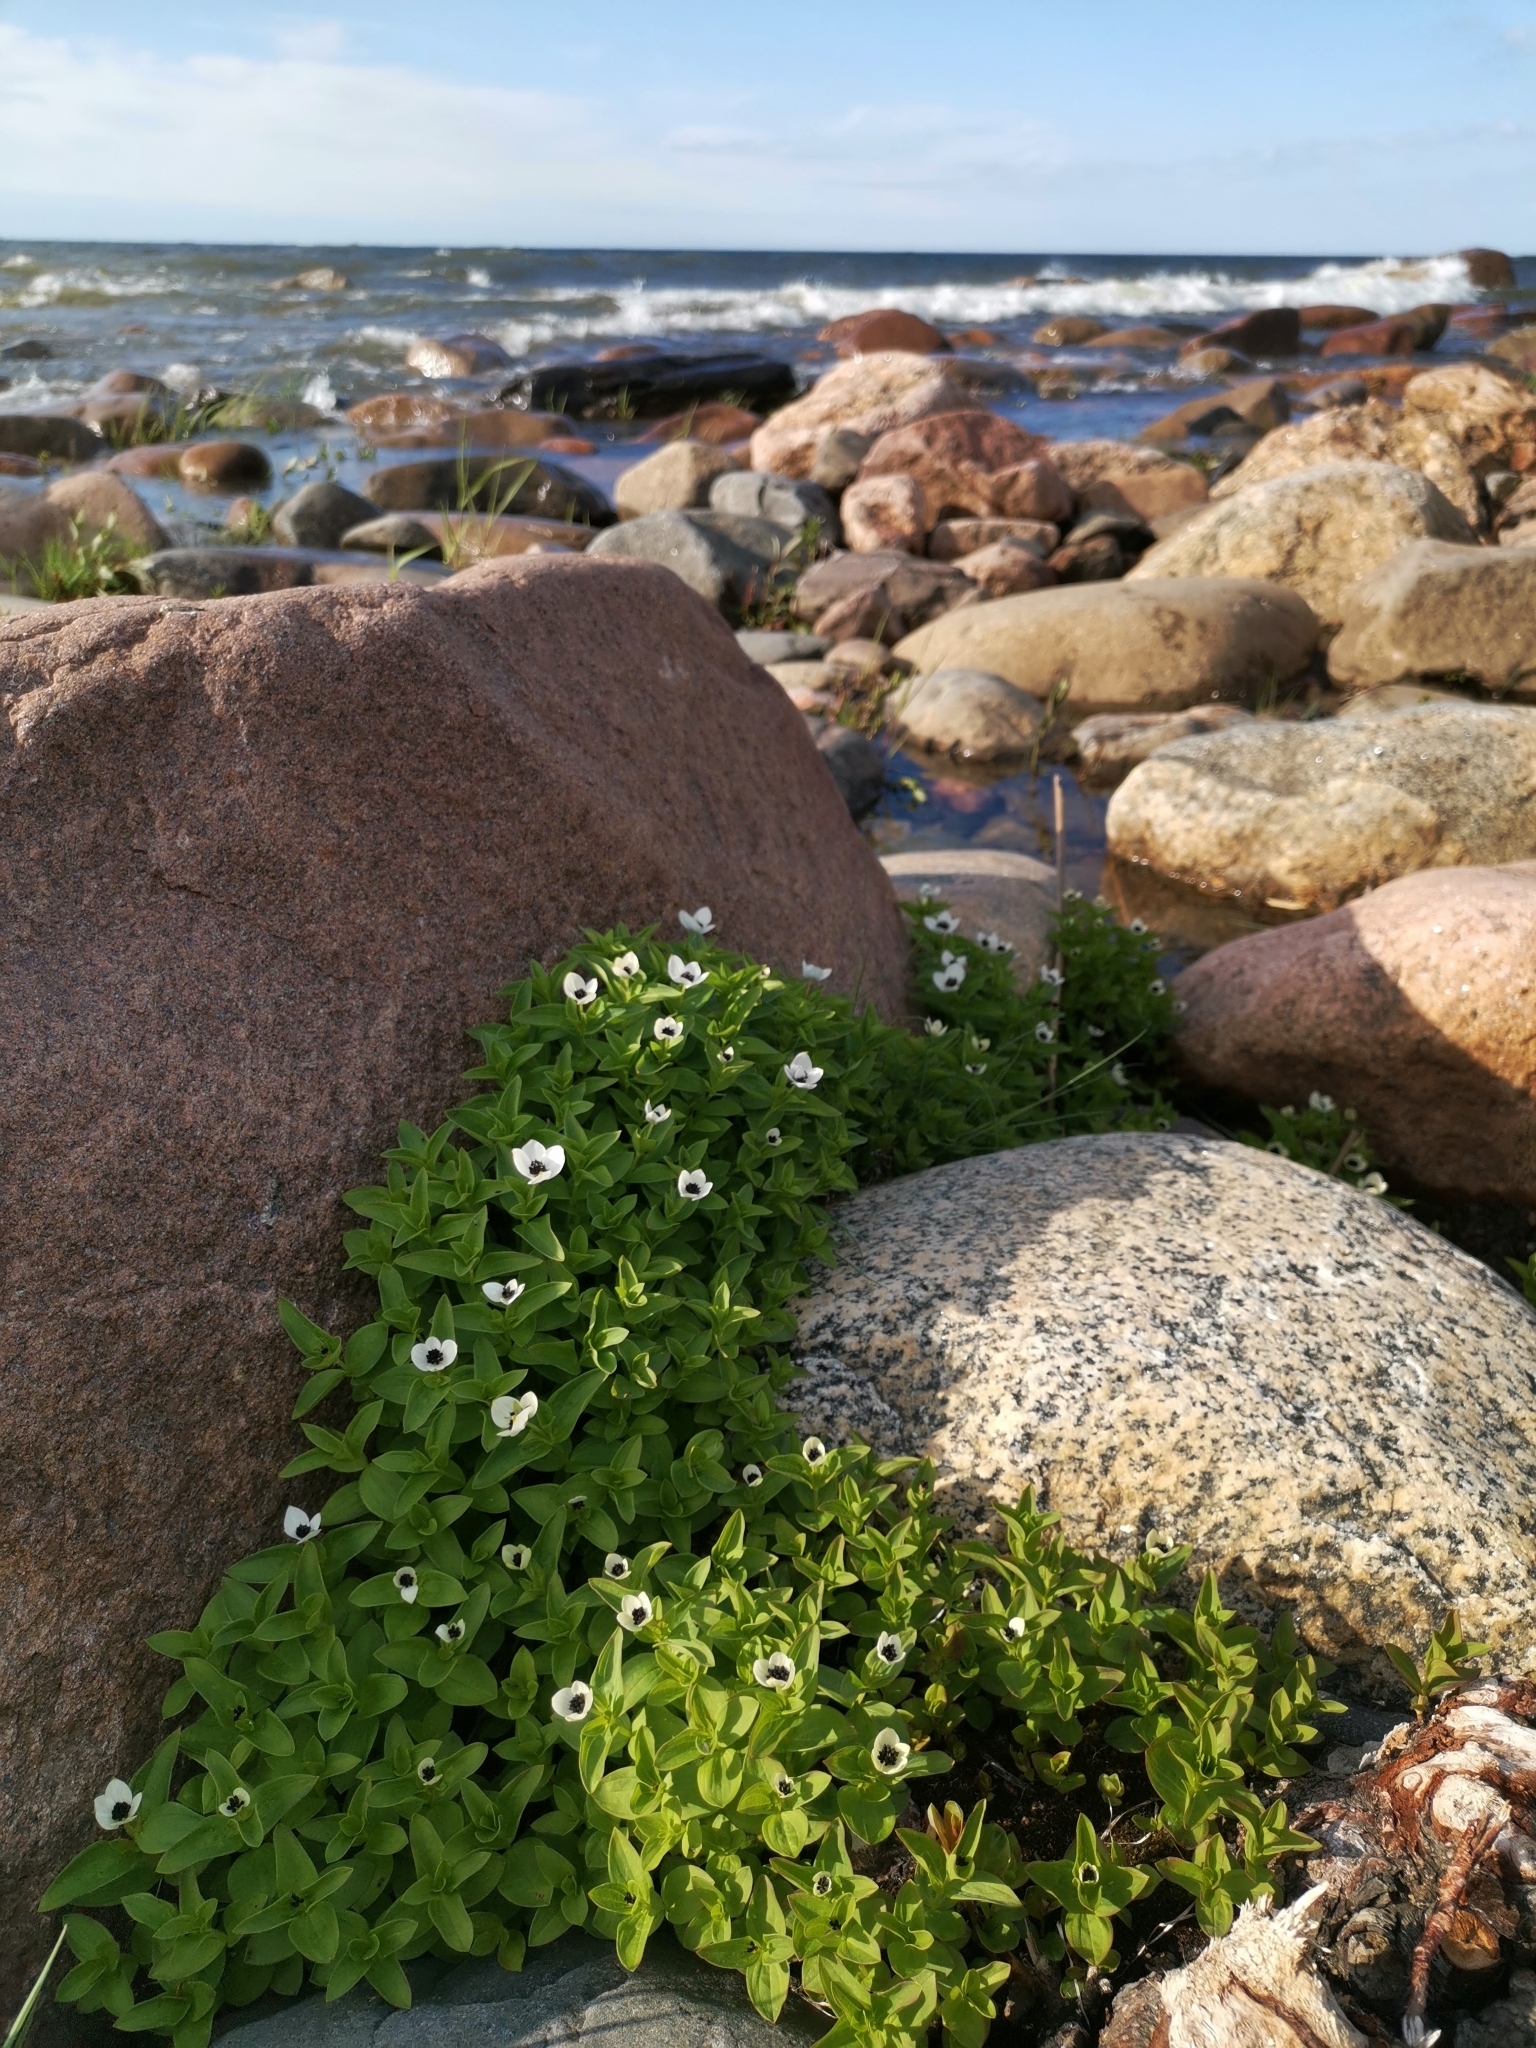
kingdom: Plantae
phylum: Tracheophyta
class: Magnoliopsida
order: Cornales
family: Cornaceae
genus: Cornus
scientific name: Cornus suecica
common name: Dwarf cornel
